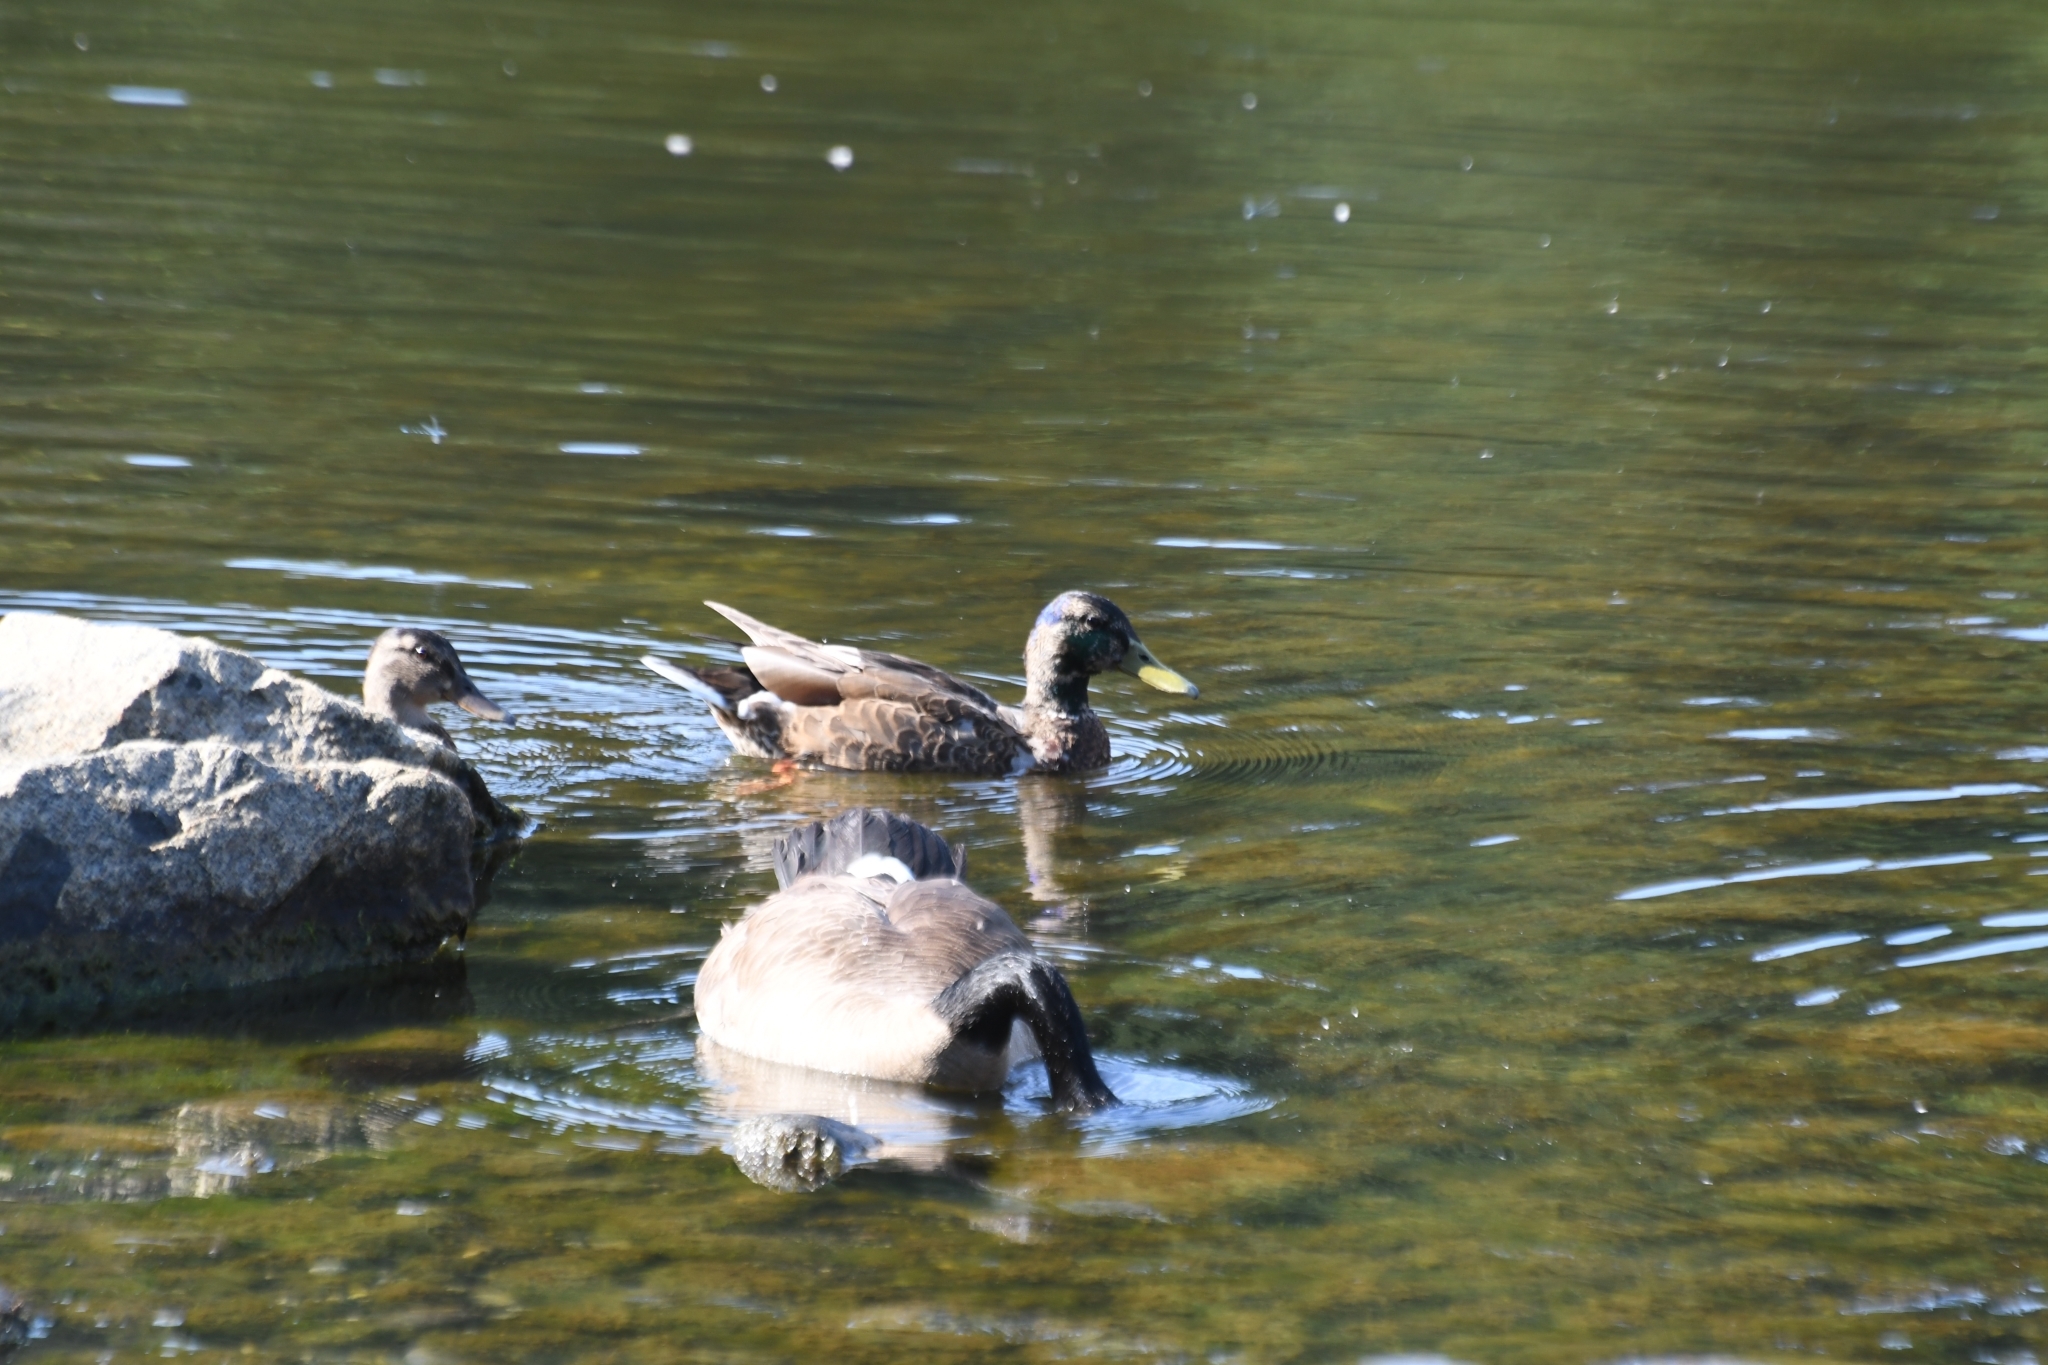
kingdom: Animalia
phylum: Chordata
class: Aves
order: Anseriformes
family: Anatidae
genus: Anas
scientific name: Anas platyrhynchos
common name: Mallard
